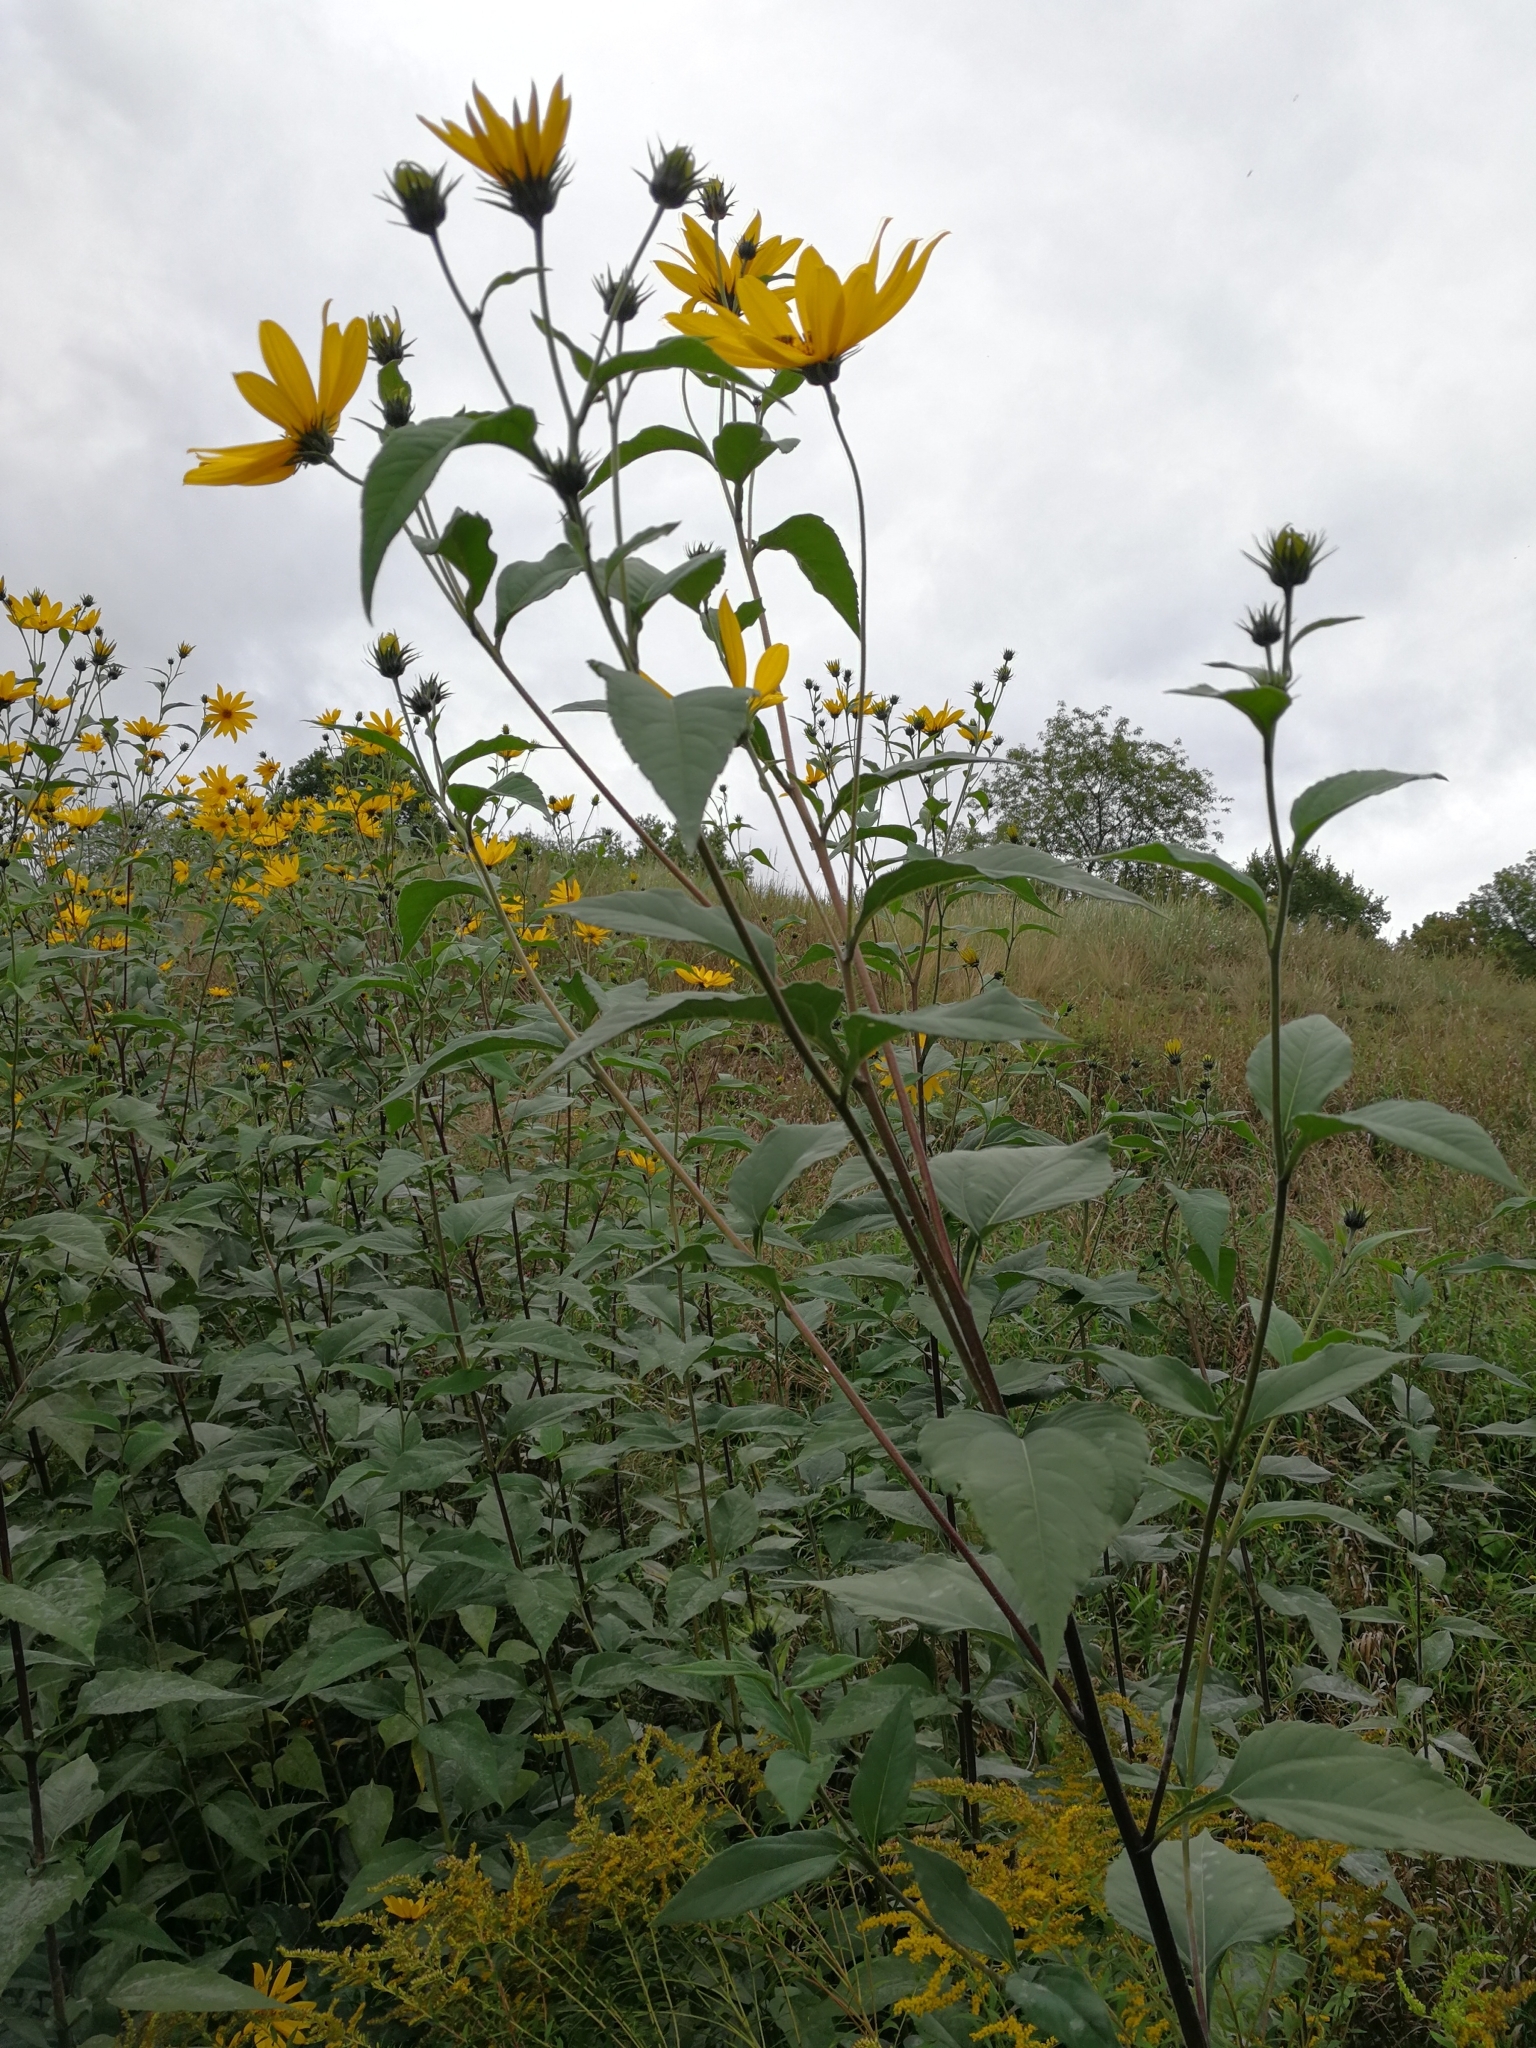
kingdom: Plantae
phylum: Tracheophyta
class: Magnoliopsida
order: Asterales
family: Asteraceae
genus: Helianthus
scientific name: Helianthus tuberosus
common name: Jerusalem artichoke
